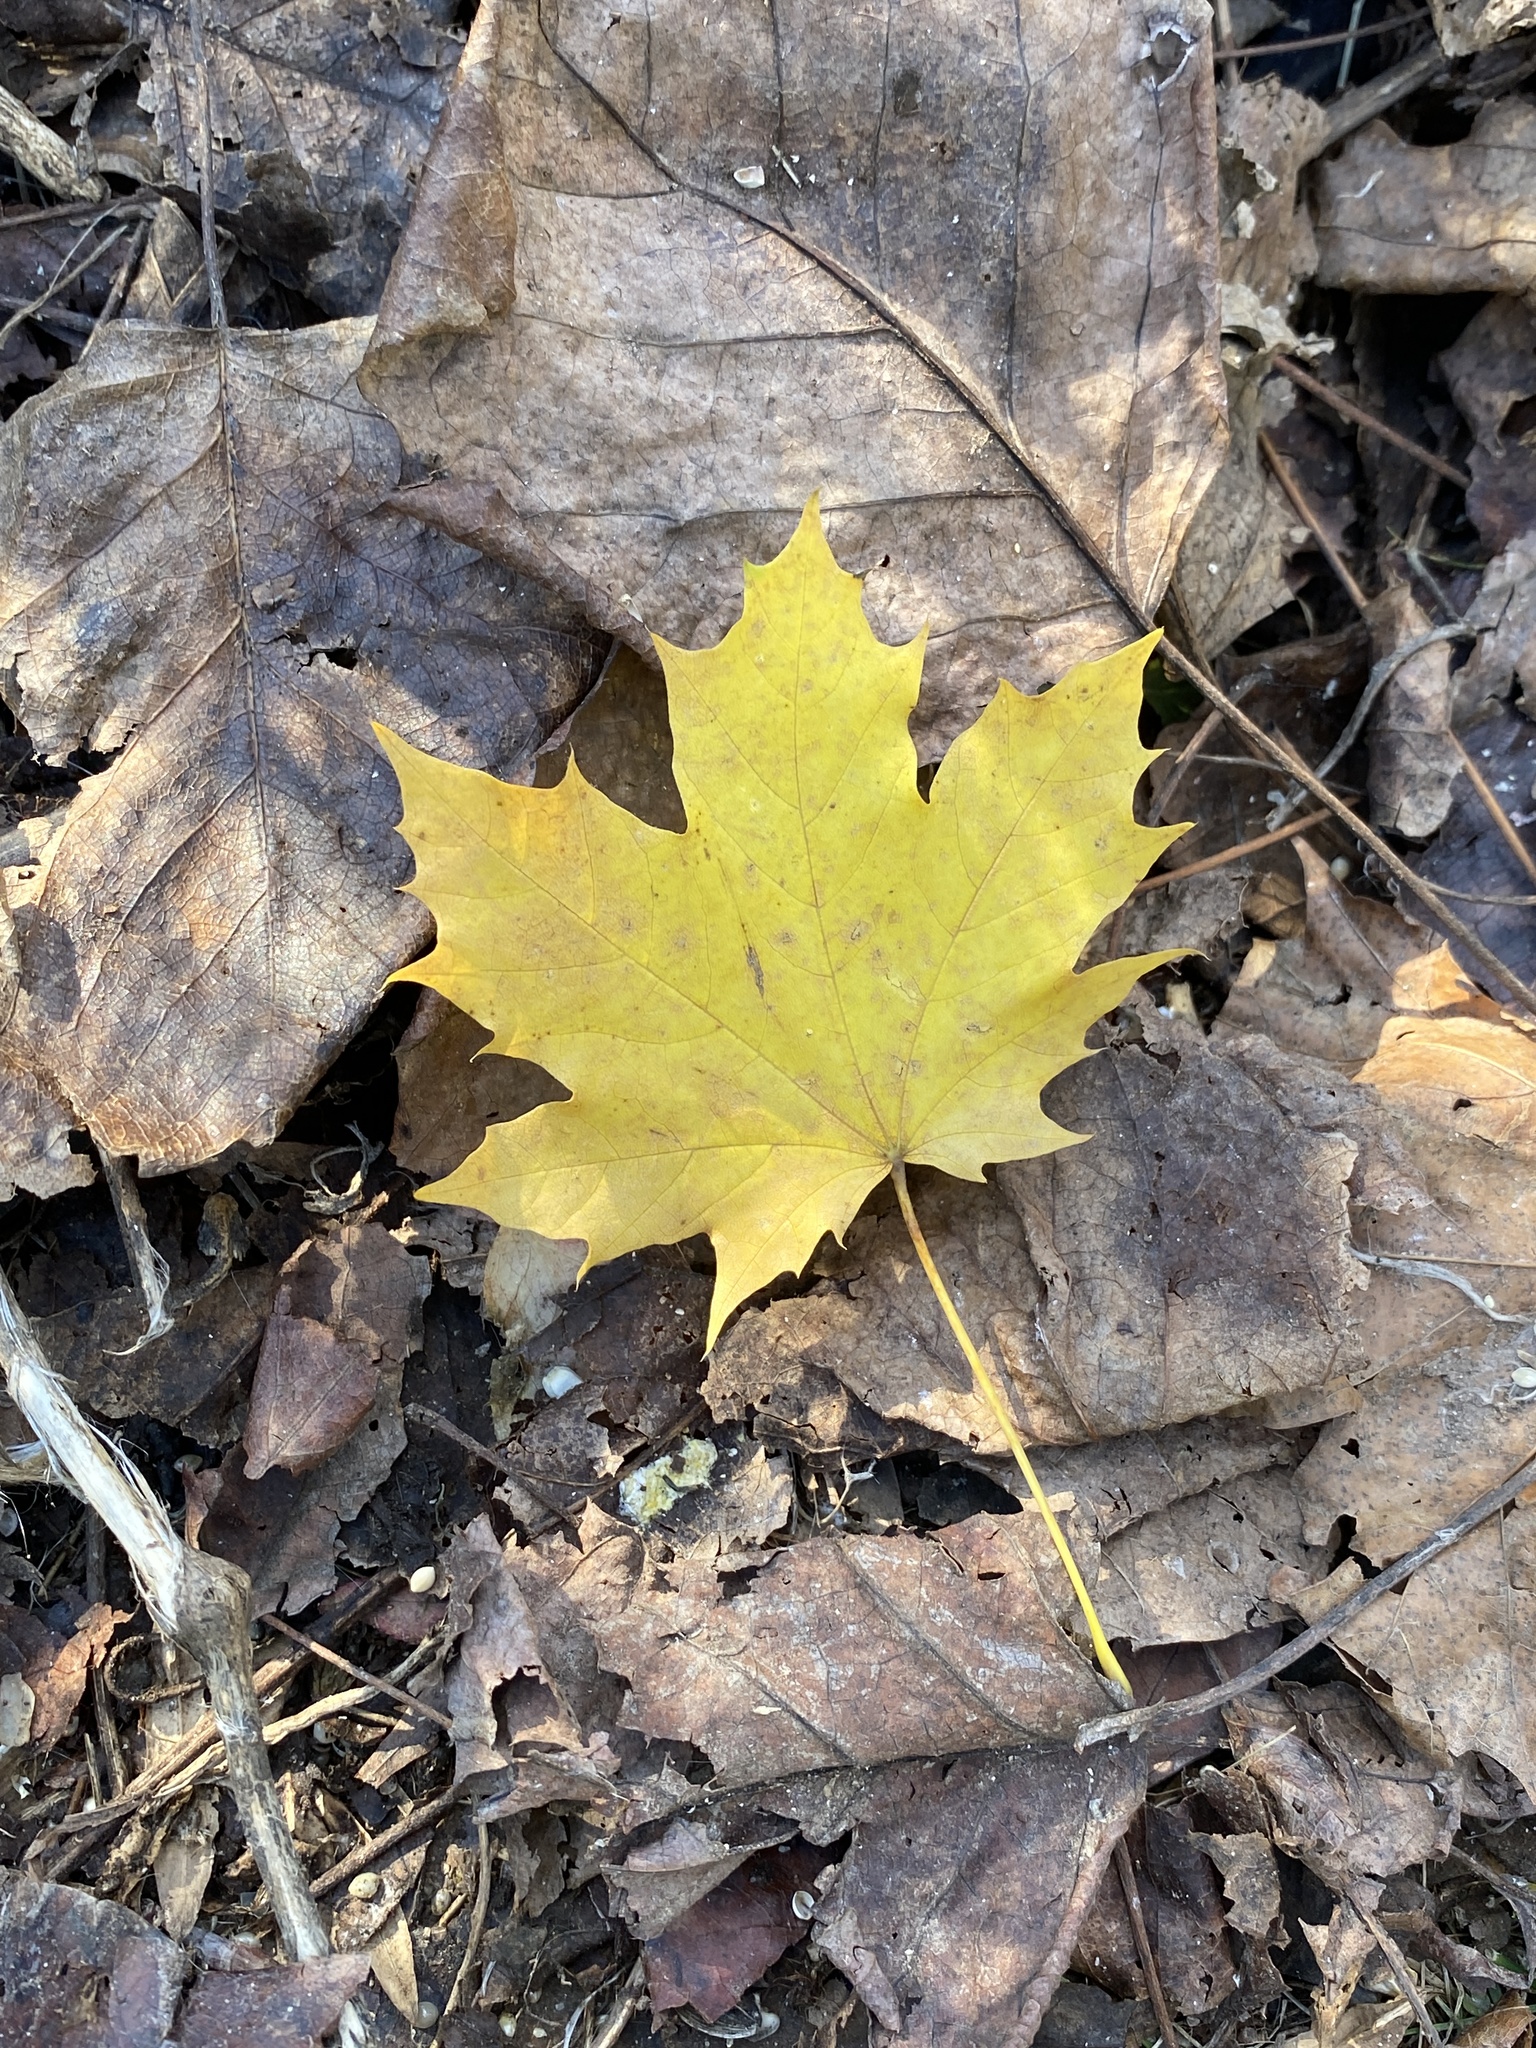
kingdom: Plantae
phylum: Tracheophyta
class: Magnoliopsida
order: Sapindales
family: Sapindaceae
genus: Acer
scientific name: Acer platanoides
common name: Norway maple
